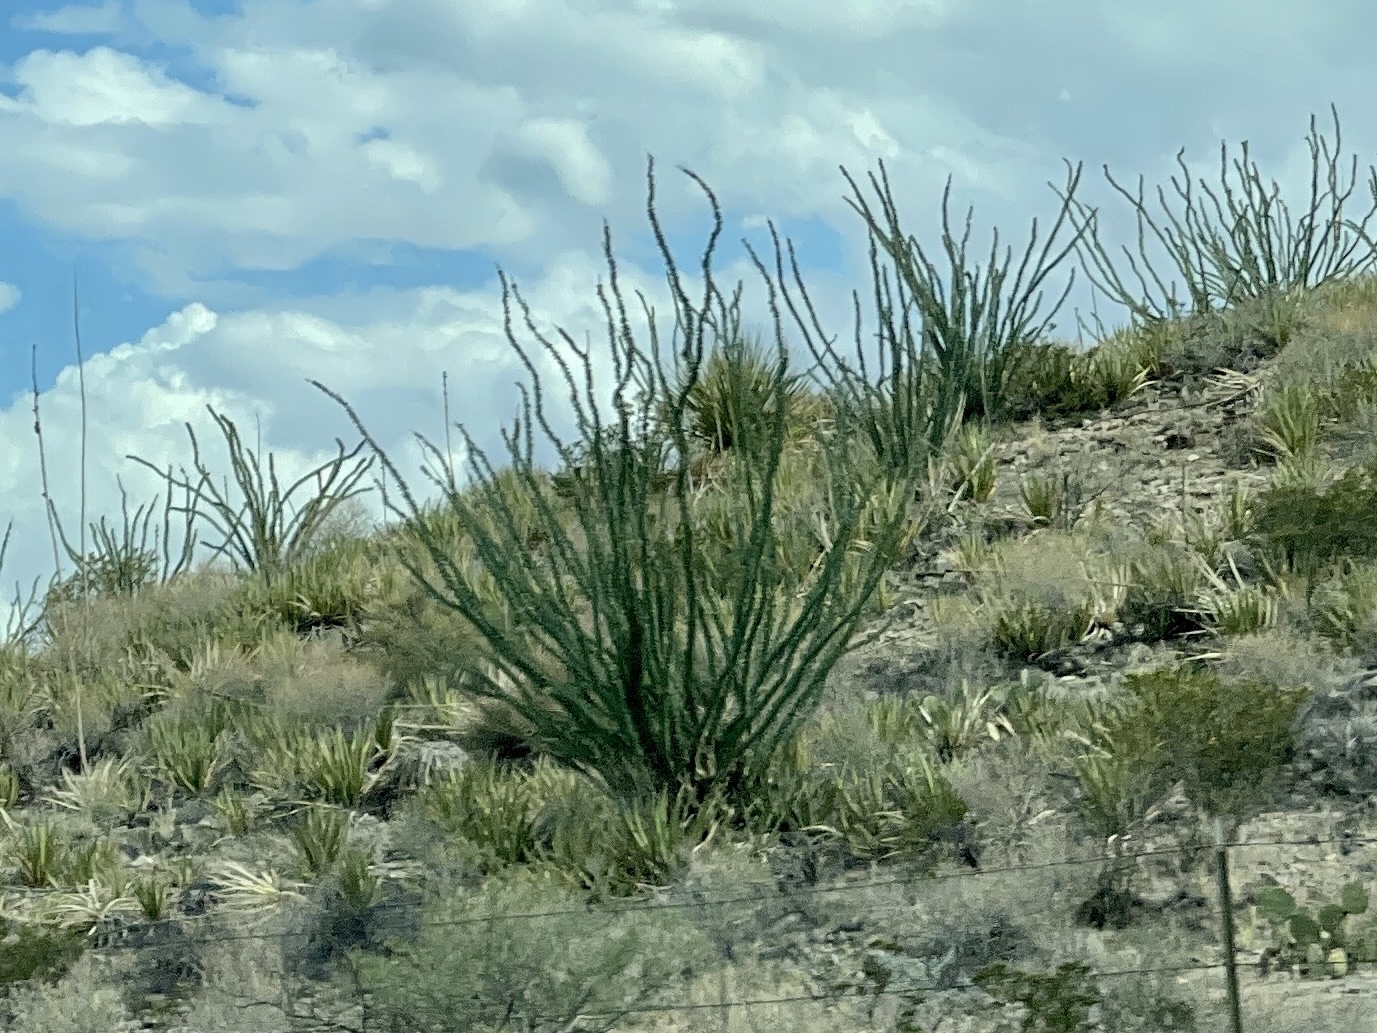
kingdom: Plantae
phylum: Tracheophyta
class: Magnoliopsida
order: Ericales
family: Fouquieriaceae
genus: Fouquieria
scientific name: Fouquieria splendens
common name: Vine-cactus
